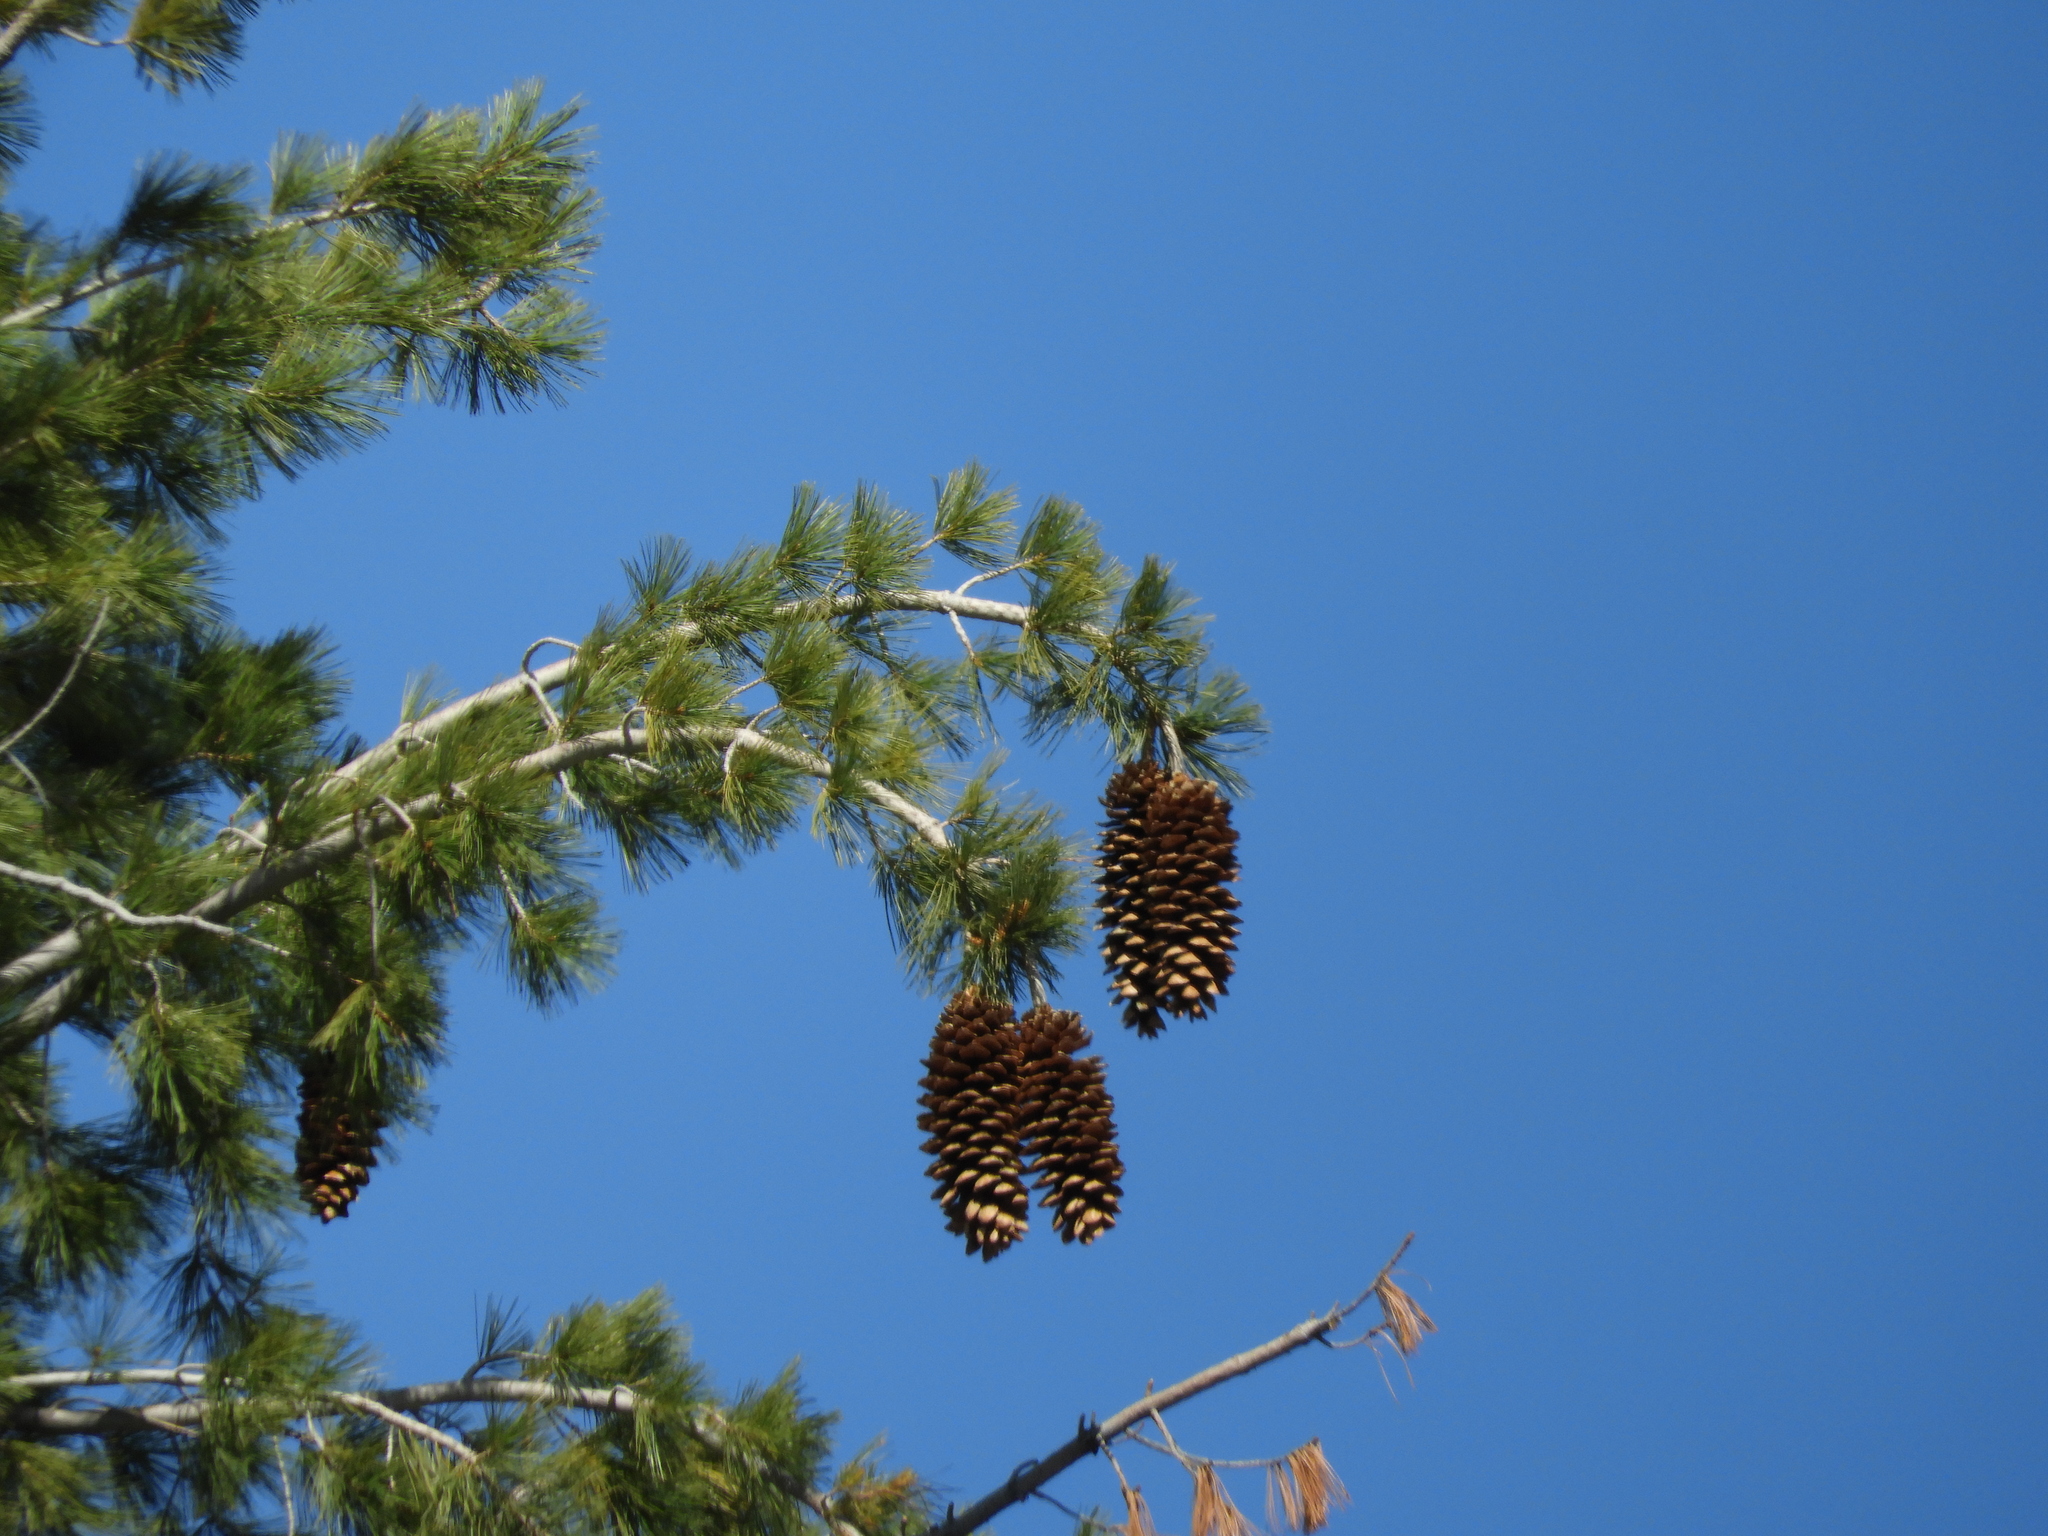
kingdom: Plantae
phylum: Tracheophyta
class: Pinopsida
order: Pinales
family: Pinaceae
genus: Pinus
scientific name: Pinus lambertiana
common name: Sugar pine
